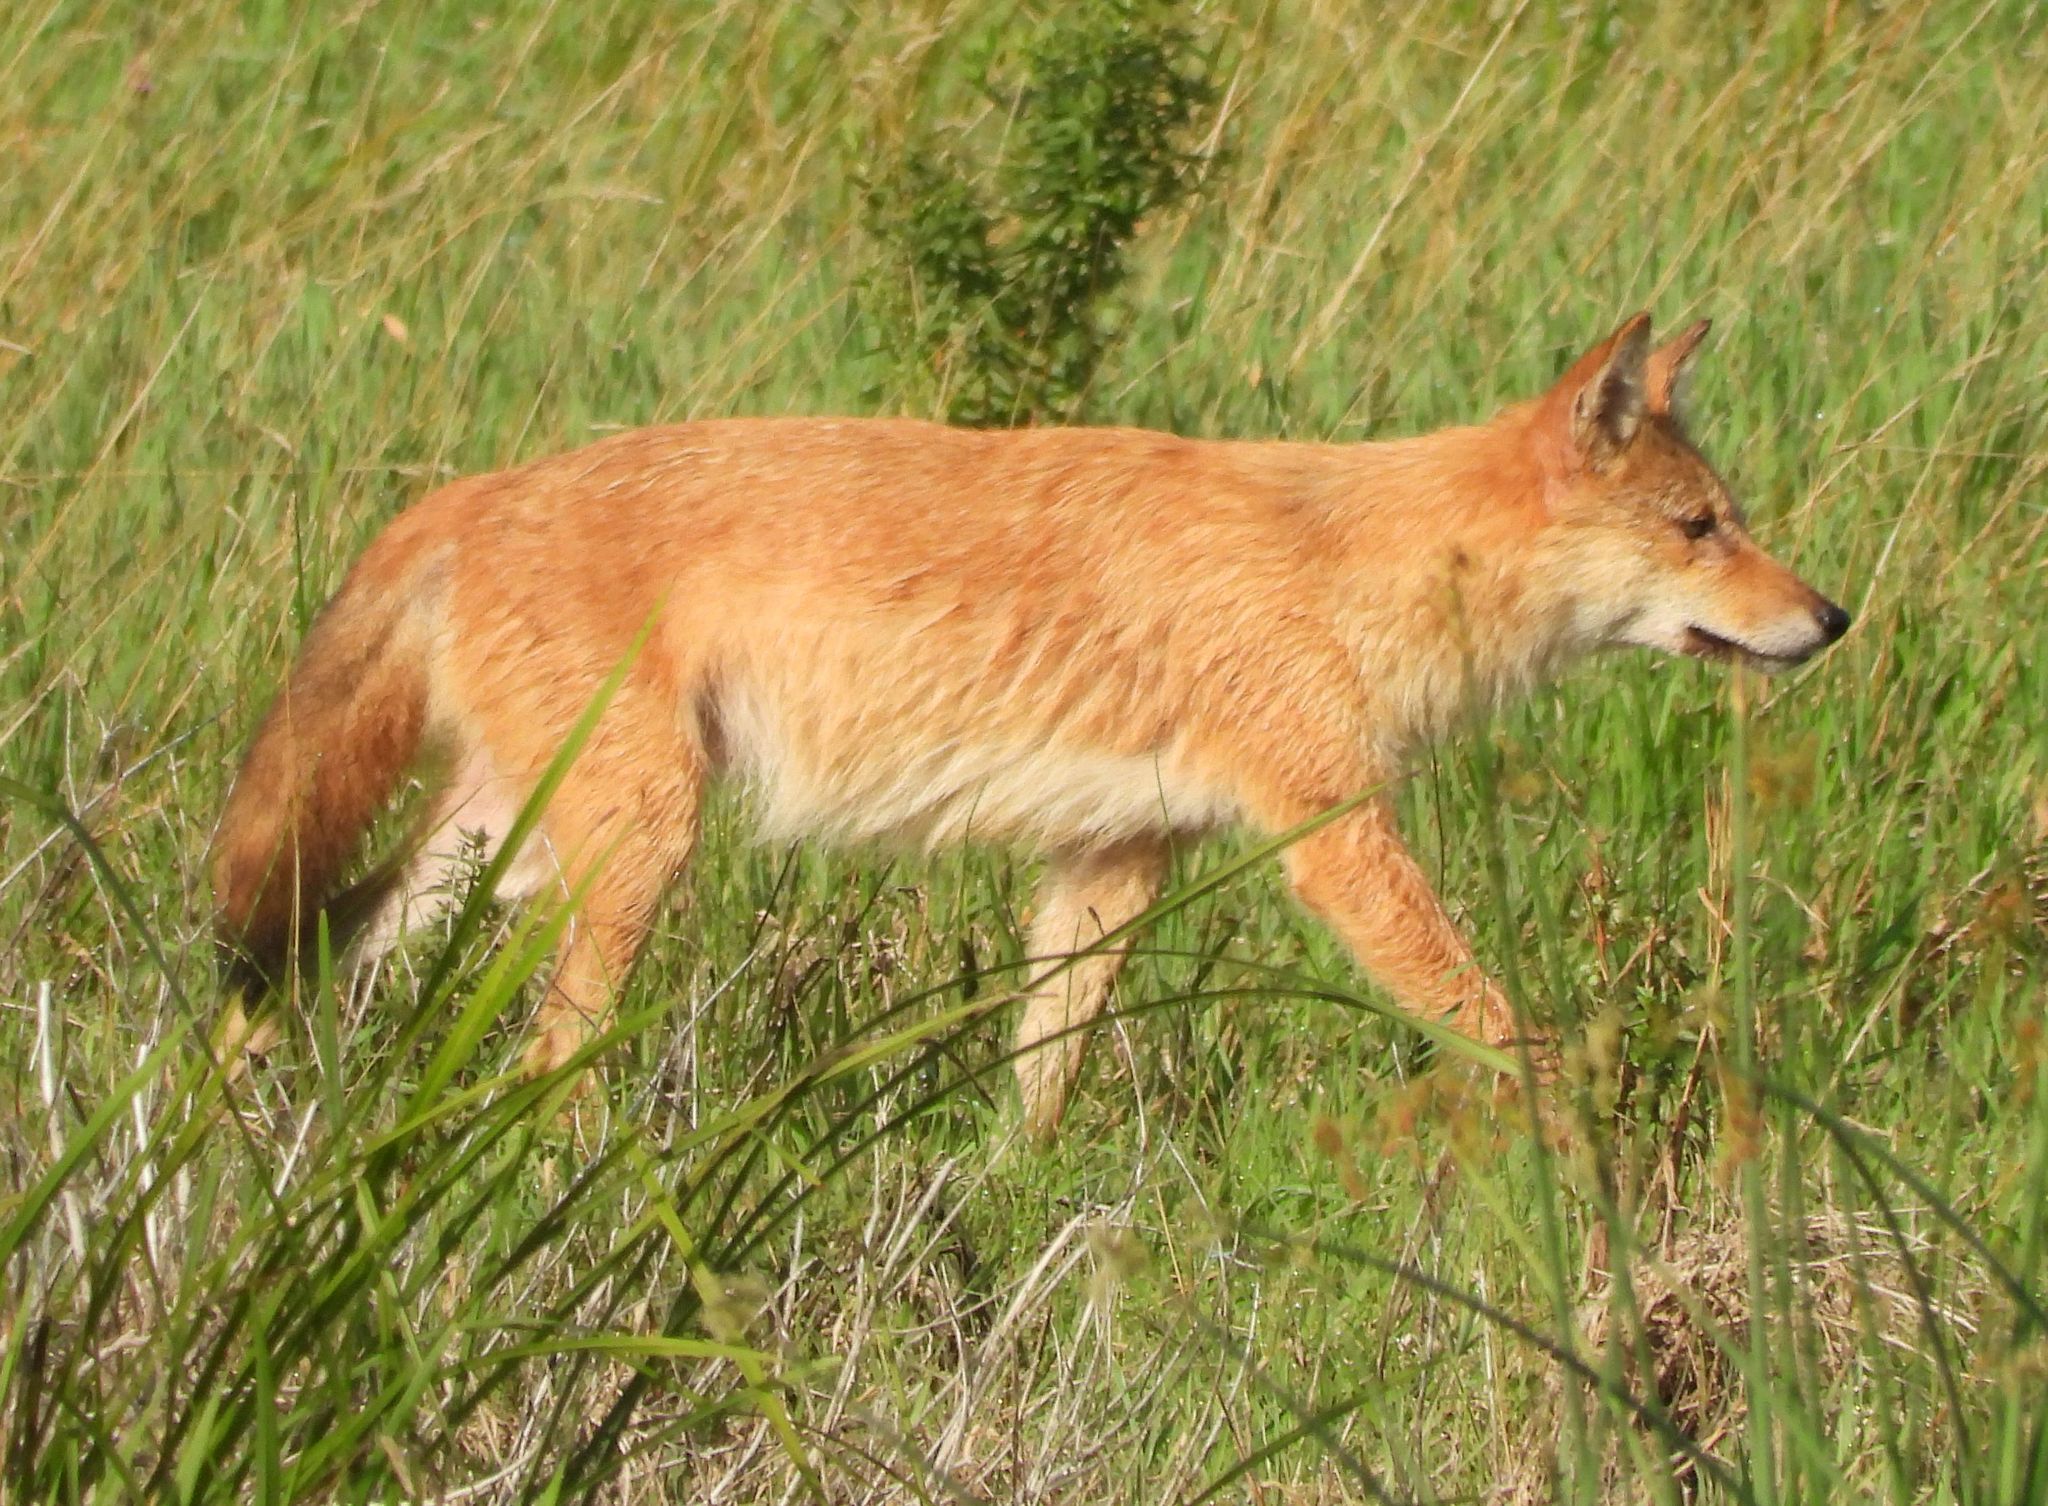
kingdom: Animalia
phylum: Chordata
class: Mammalia
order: Carnivora
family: Canidae
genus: Canis
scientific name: Canis latrans
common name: Coyote
